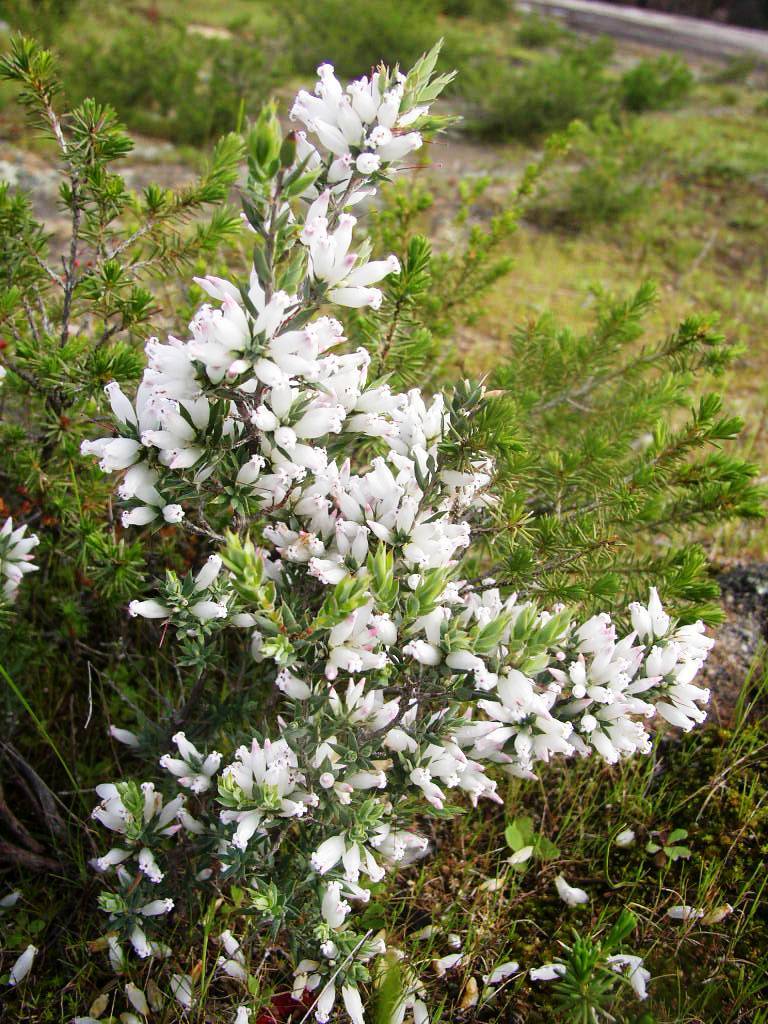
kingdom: Plantae
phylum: Tracheophyta
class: Magnoliopsida
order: Ericales
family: Ericaceae
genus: Styphelia
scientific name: Styphelia pallida
